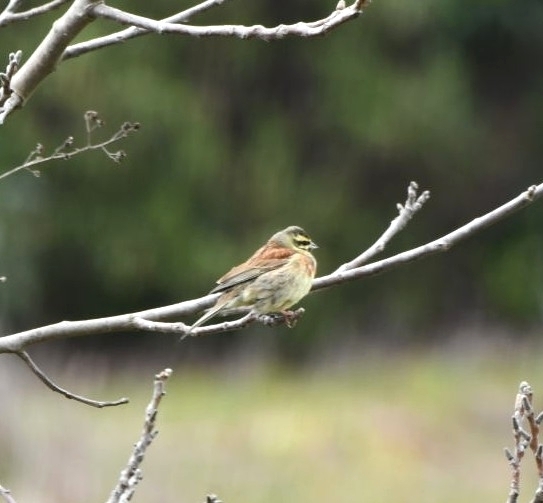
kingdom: Animalia
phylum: Chordata
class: Aves
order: Passeriformes
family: Emberizidae
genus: Emberiza
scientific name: Emberiza cirlus
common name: Cirl bunting
